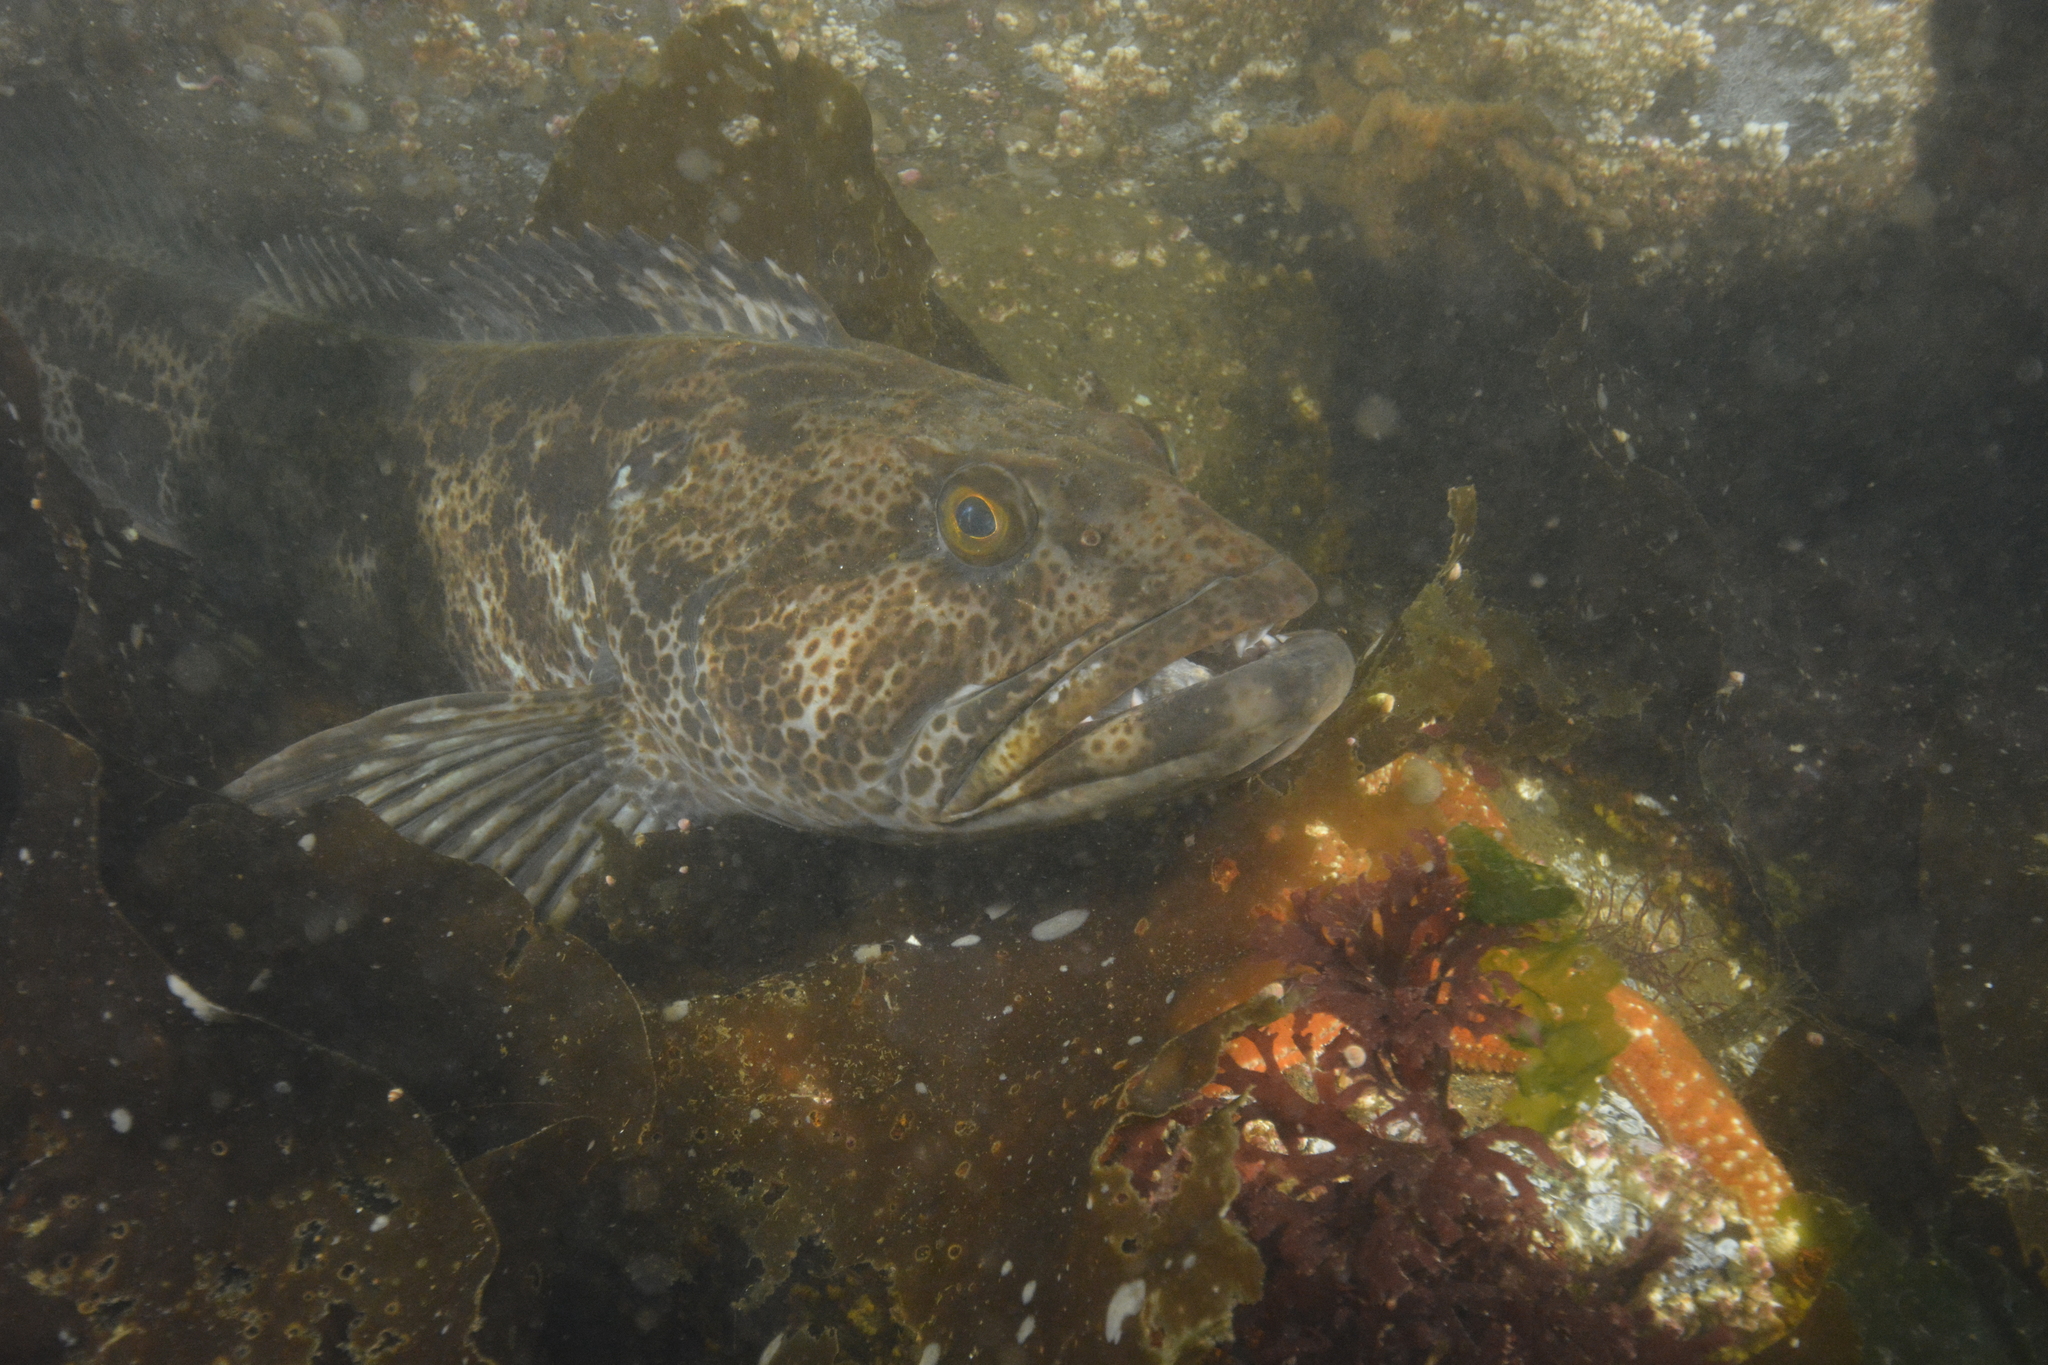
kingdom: Animalia
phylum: Chordata
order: Scorpaeniformes
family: Hexagrammidae
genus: Ophiodon
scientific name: Ophiodon elongatus
